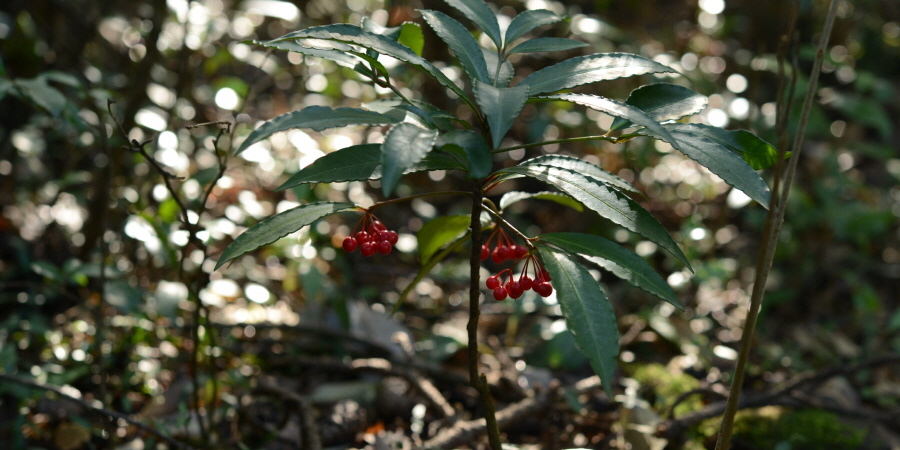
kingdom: Plantae
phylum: Tracheophyta
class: Magnoliopsida
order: Ericales
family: Primulaceae
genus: Ardisia
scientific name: Ardisia crenata
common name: Hen's eyes
